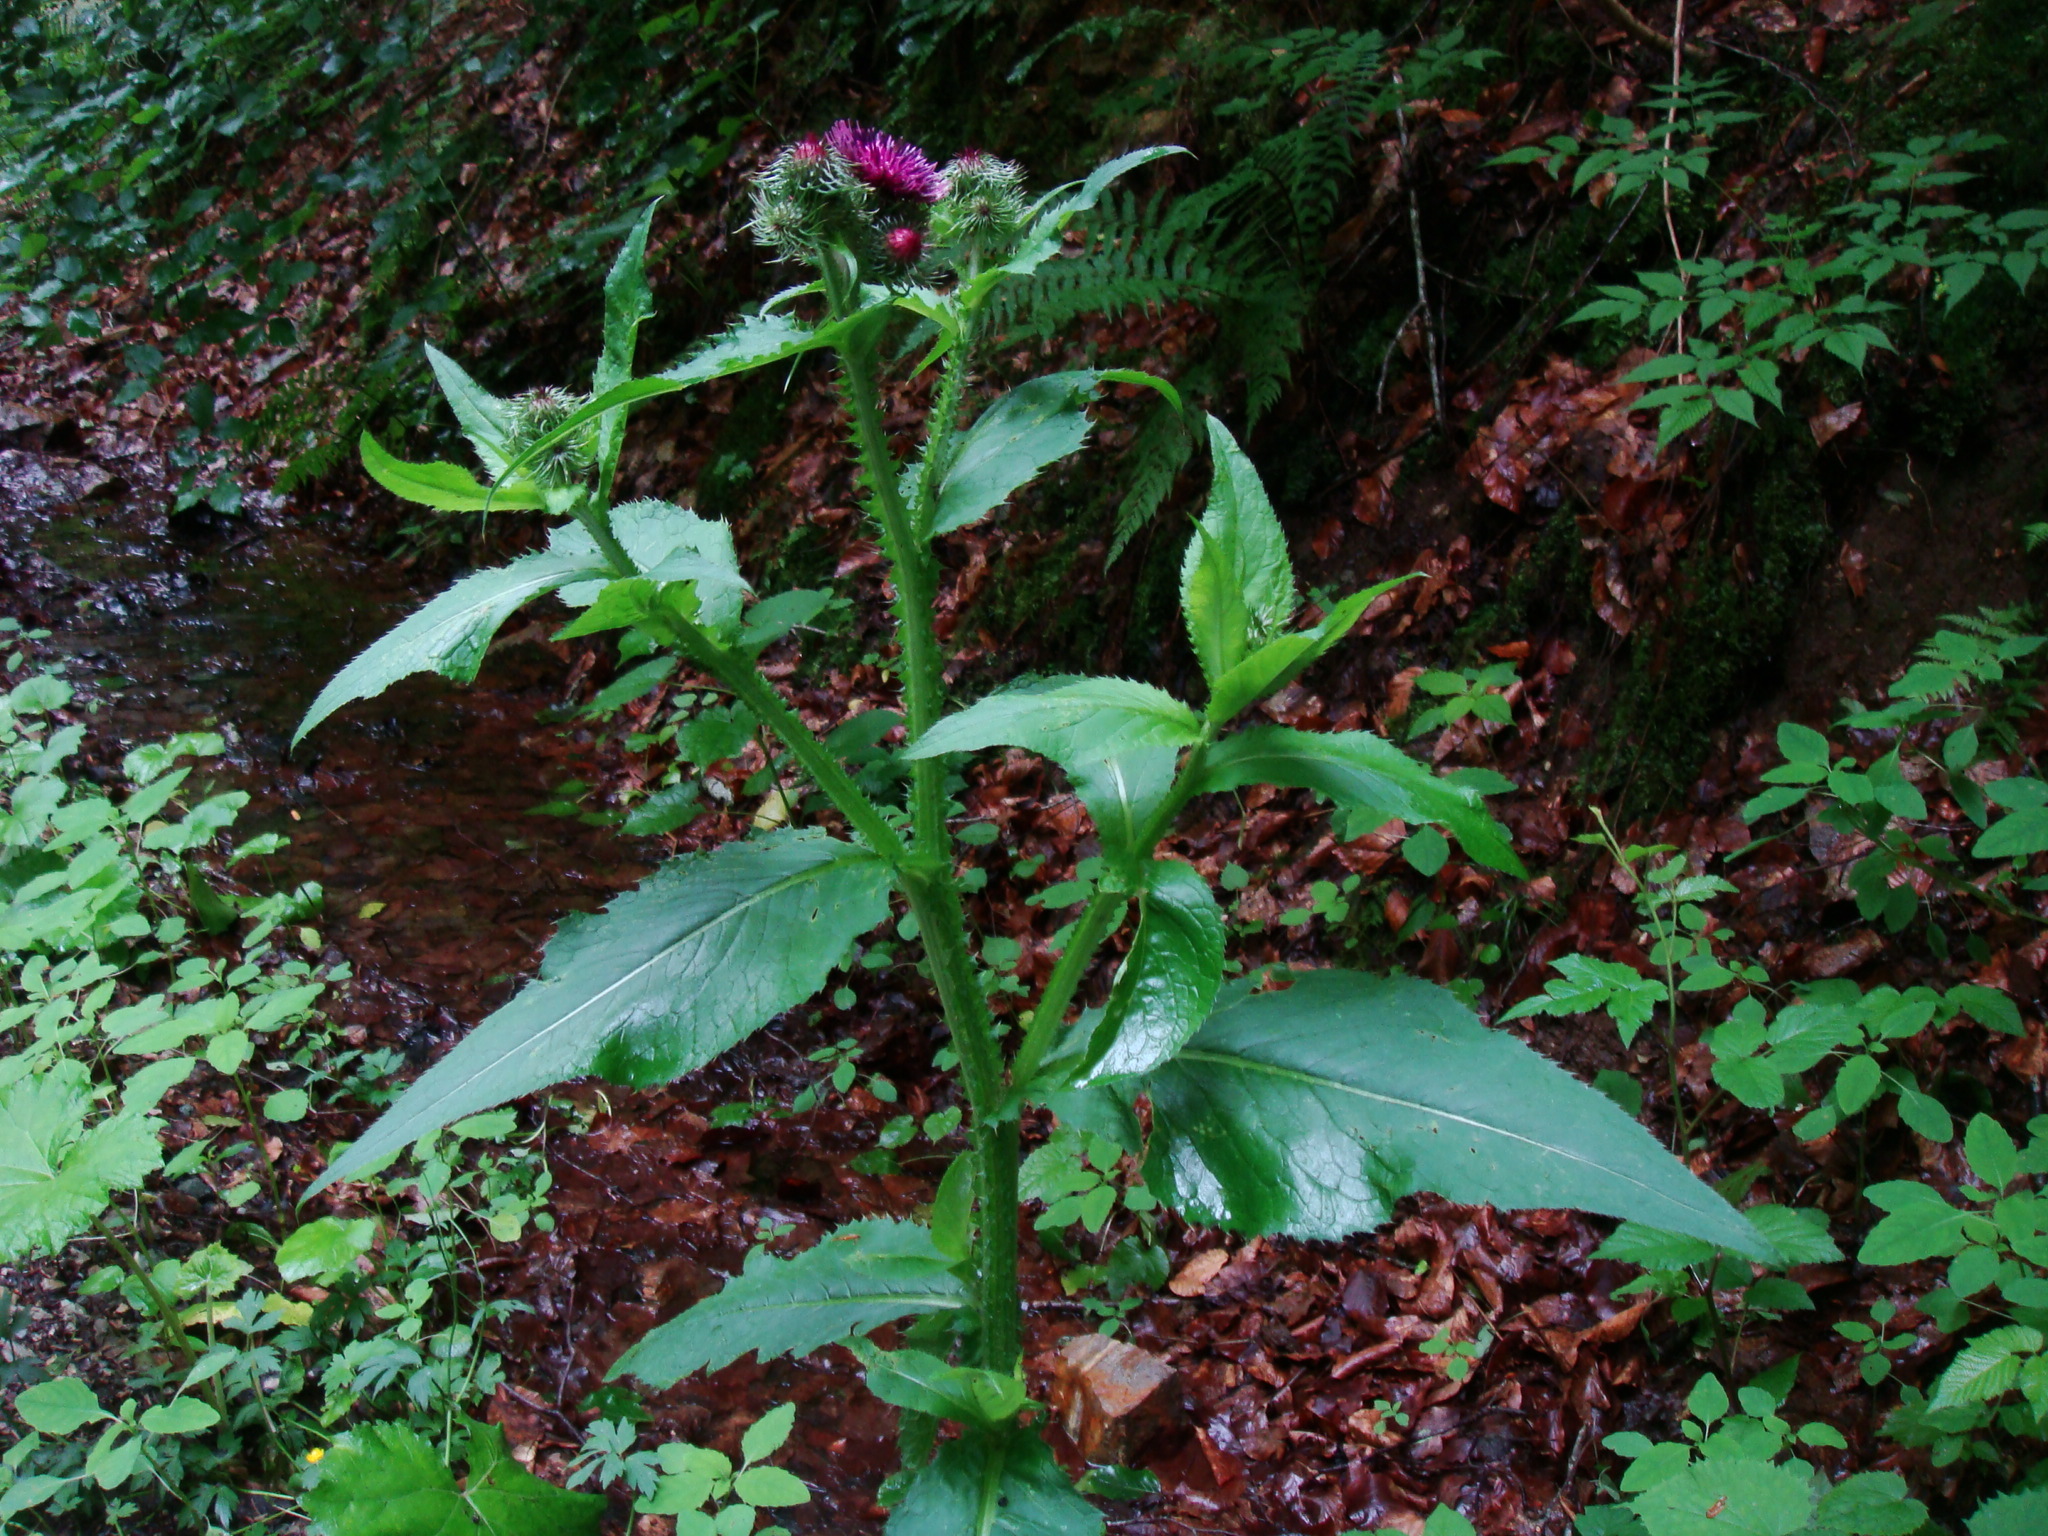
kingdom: Plantae
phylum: Tracheophyta
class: Magnoliopsida
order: Asterales
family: Asteraceae
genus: Carduus
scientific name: Carduus personata
